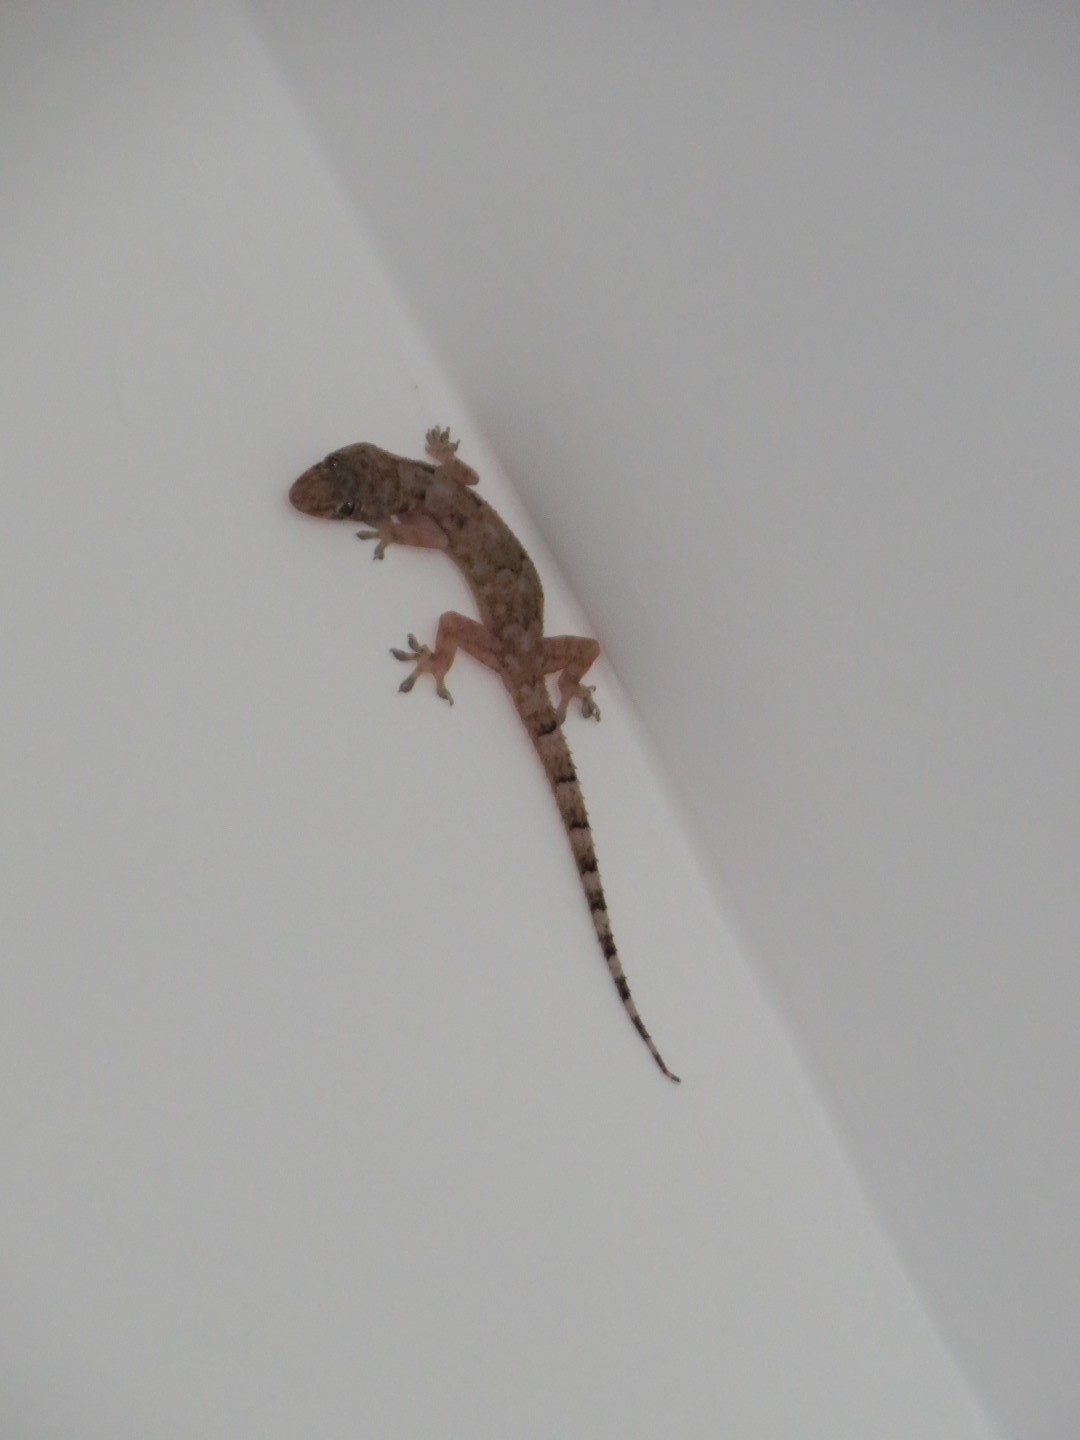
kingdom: Animalia
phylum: Chordata
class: Squamata
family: Gekkonidae
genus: Hemidactylus
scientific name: Hemidactylus mabouia
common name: House gecko
